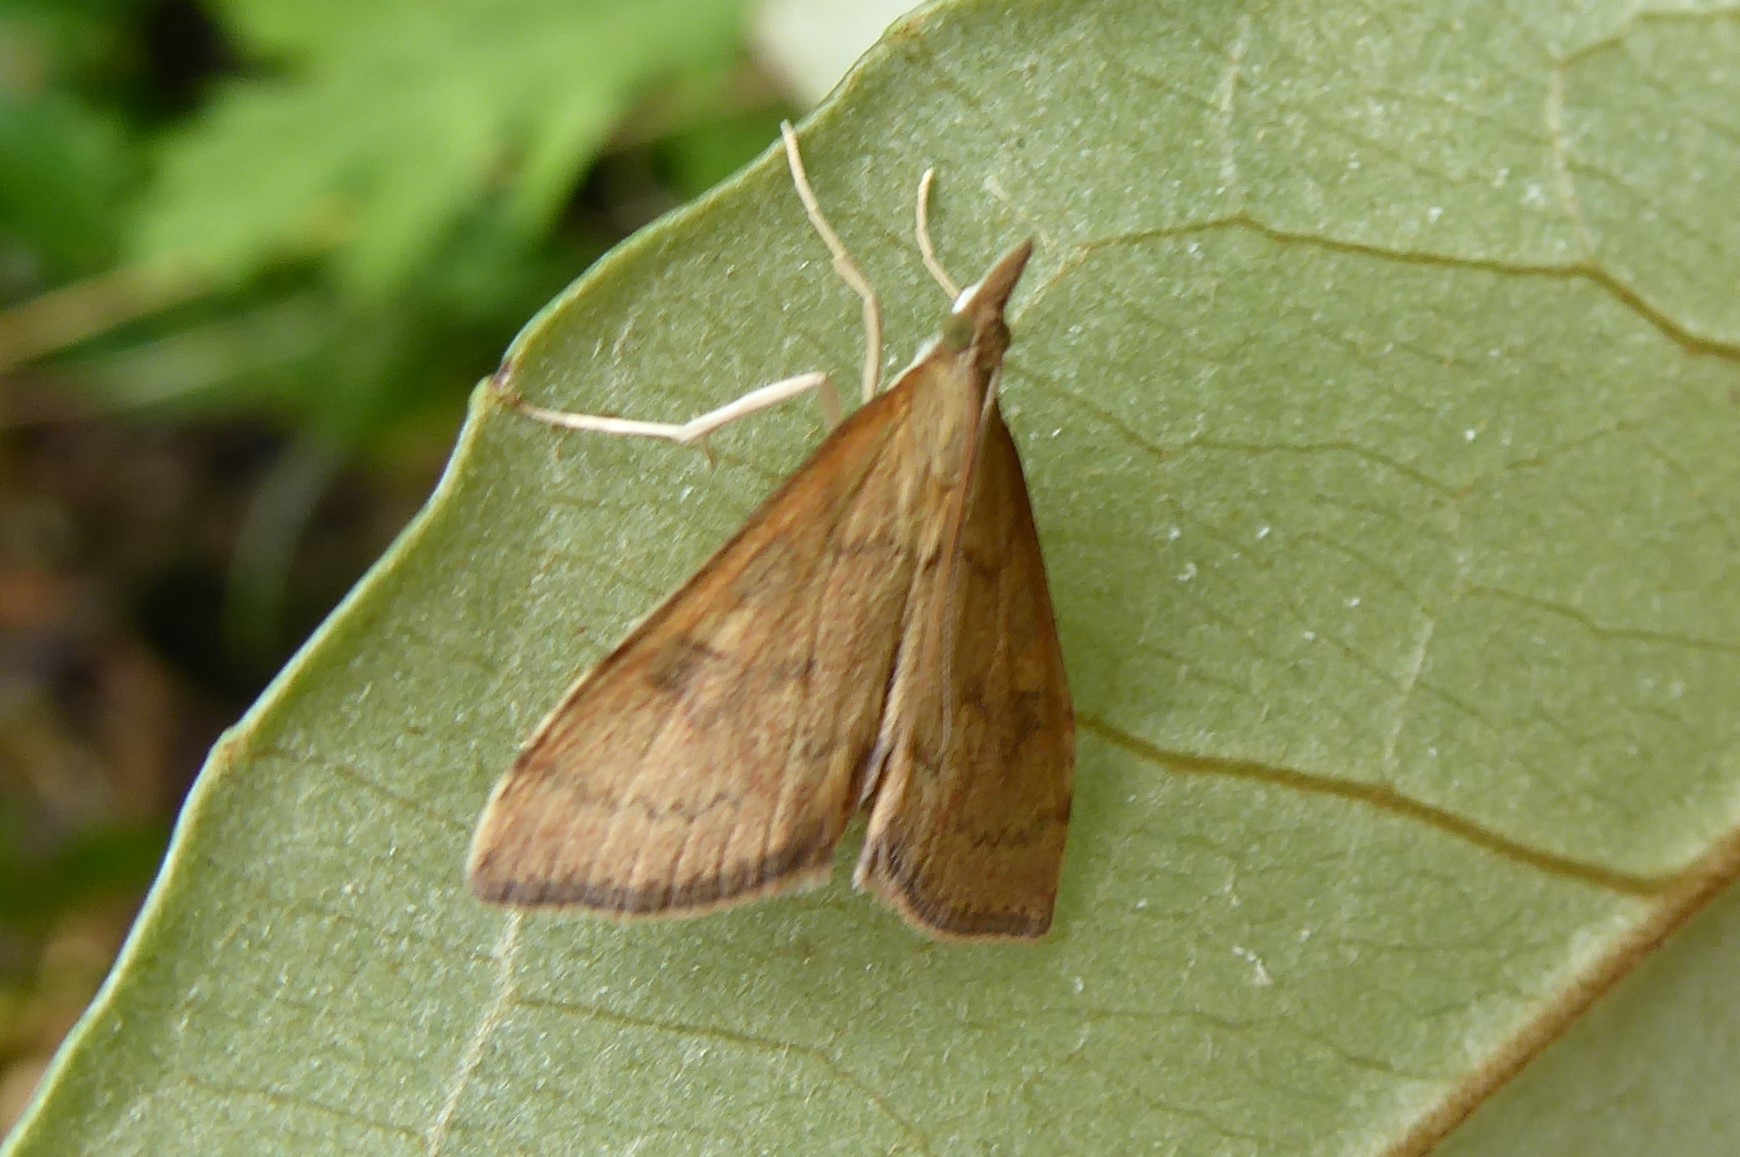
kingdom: Animalia
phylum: Arthropoda
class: Insecta
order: Lepidoptera
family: Crambidae
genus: Udea
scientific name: Udea Mnesictena flavidalis
